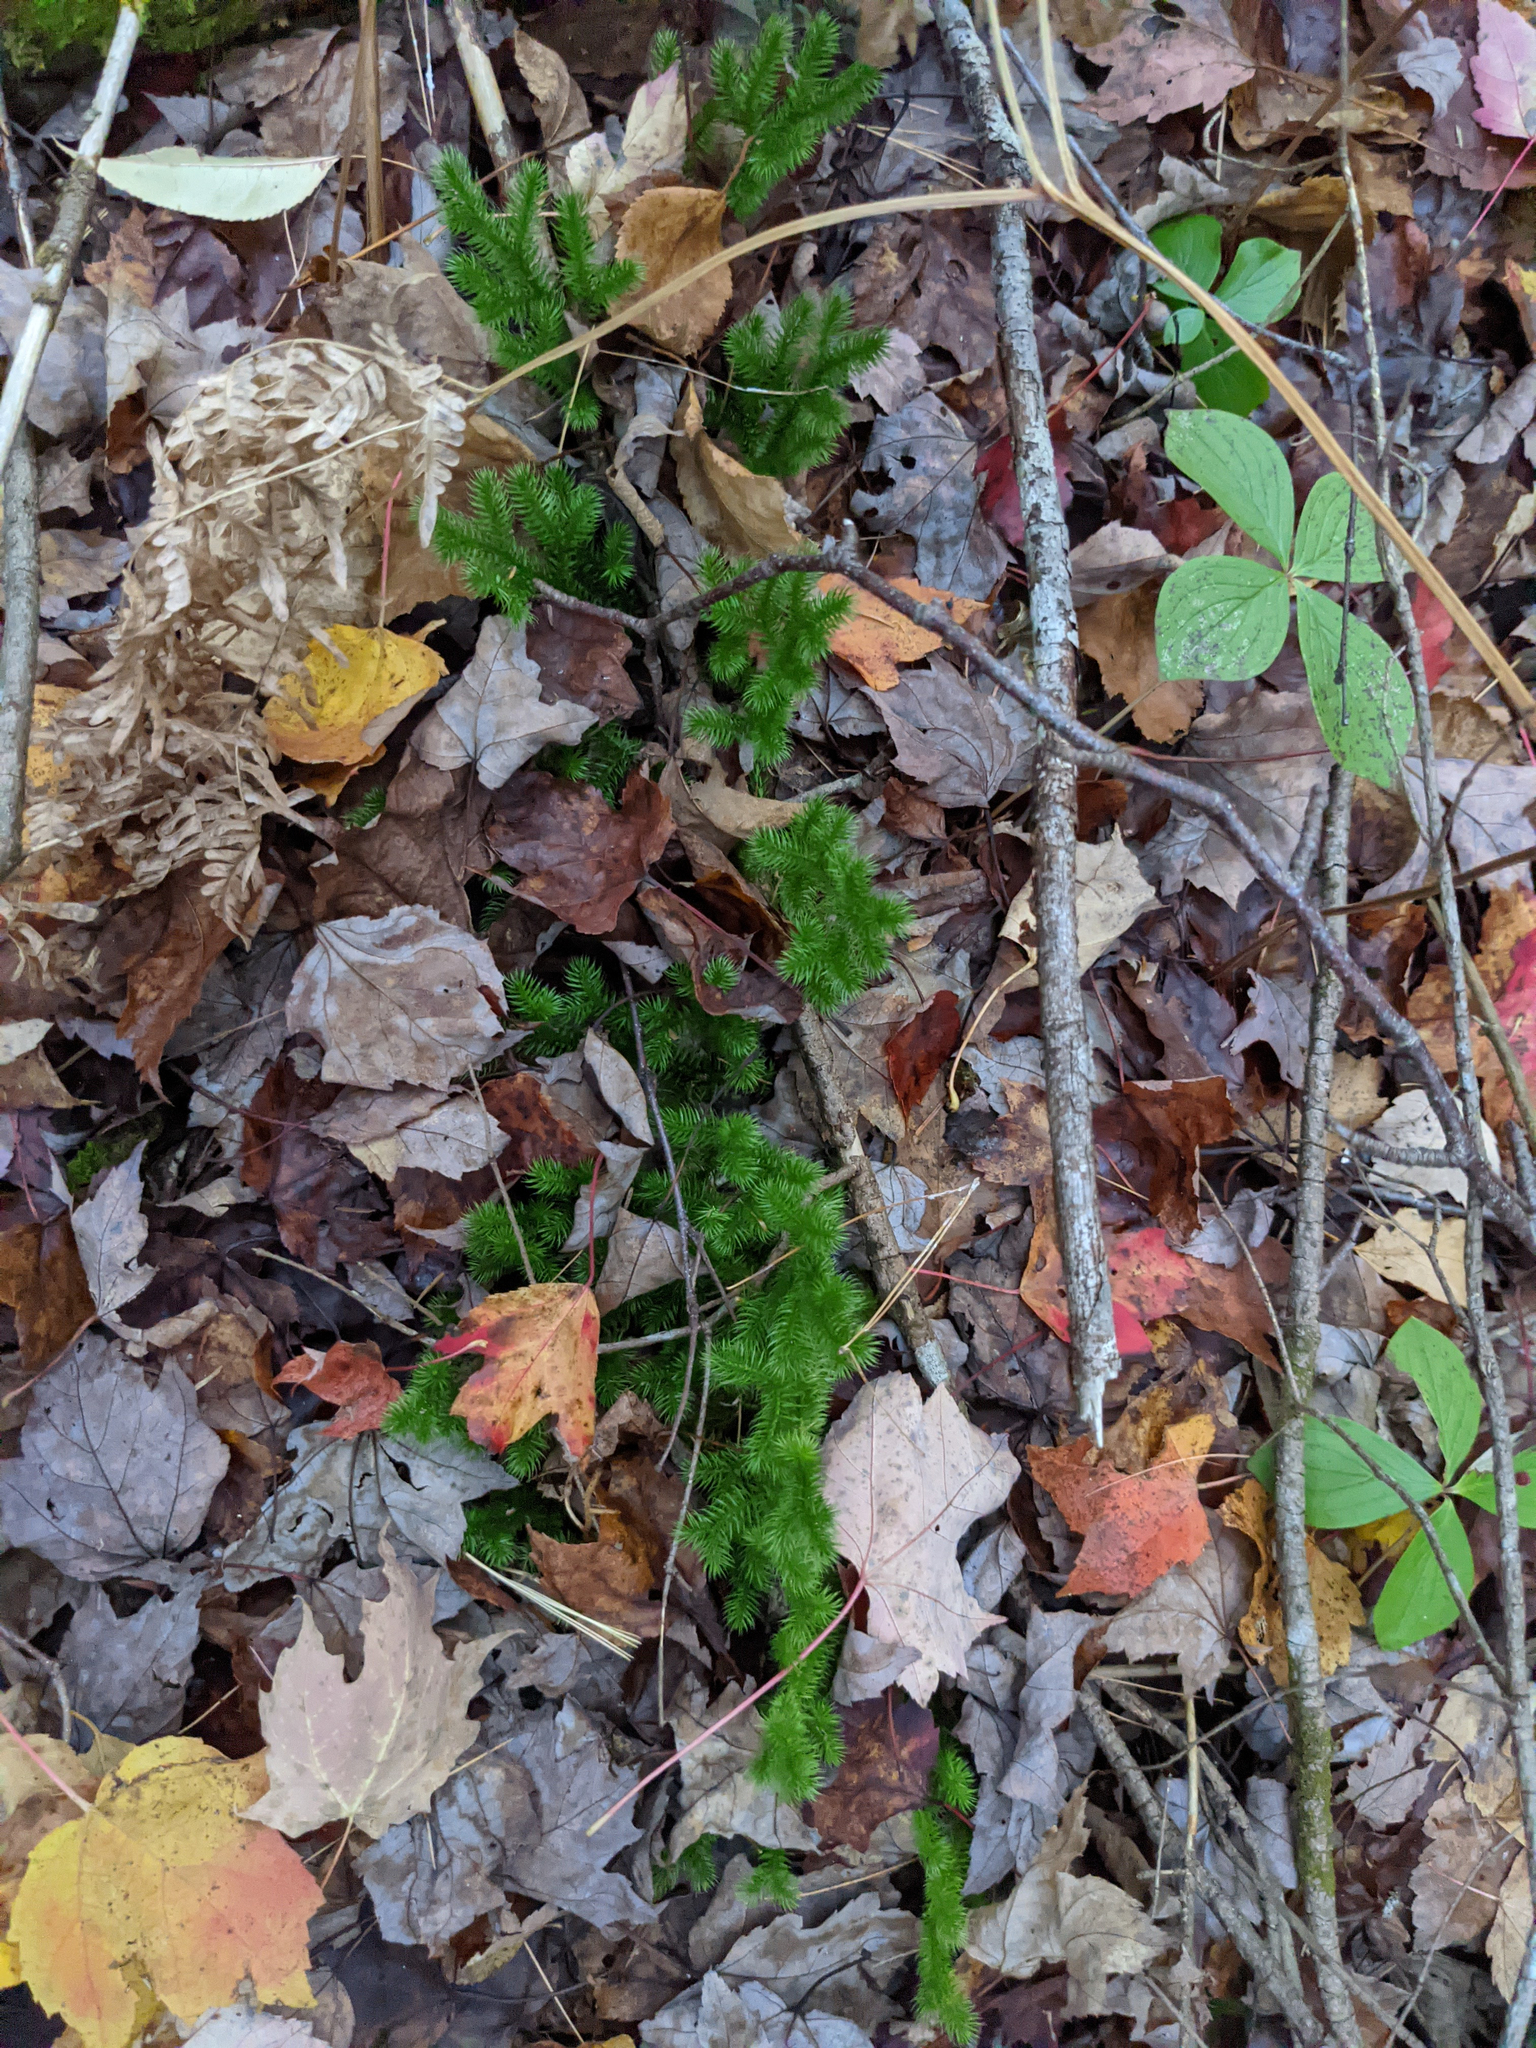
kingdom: Plantae
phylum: Tracheophyta
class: Lycopodiopsida
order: Lycopodiales
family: Lycopodiaceae
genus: Lycopodium
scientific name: Lycopodium clavatum
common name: Stag's-horn clubmoss
